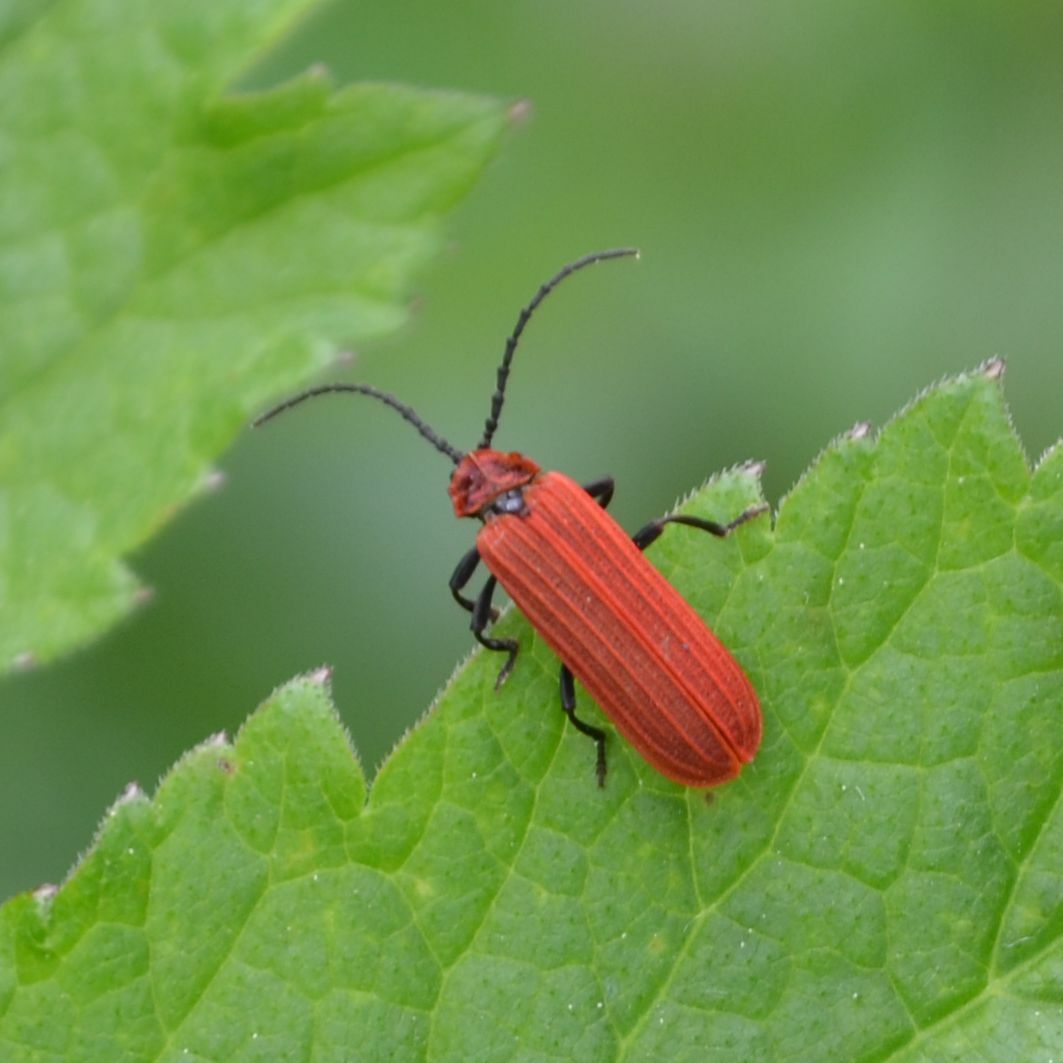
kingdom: Animalia
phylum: Arthropoda
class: Insecta
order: Coleoptera
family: Lycidae
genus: Lopheros
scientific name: Lopheros rubens
